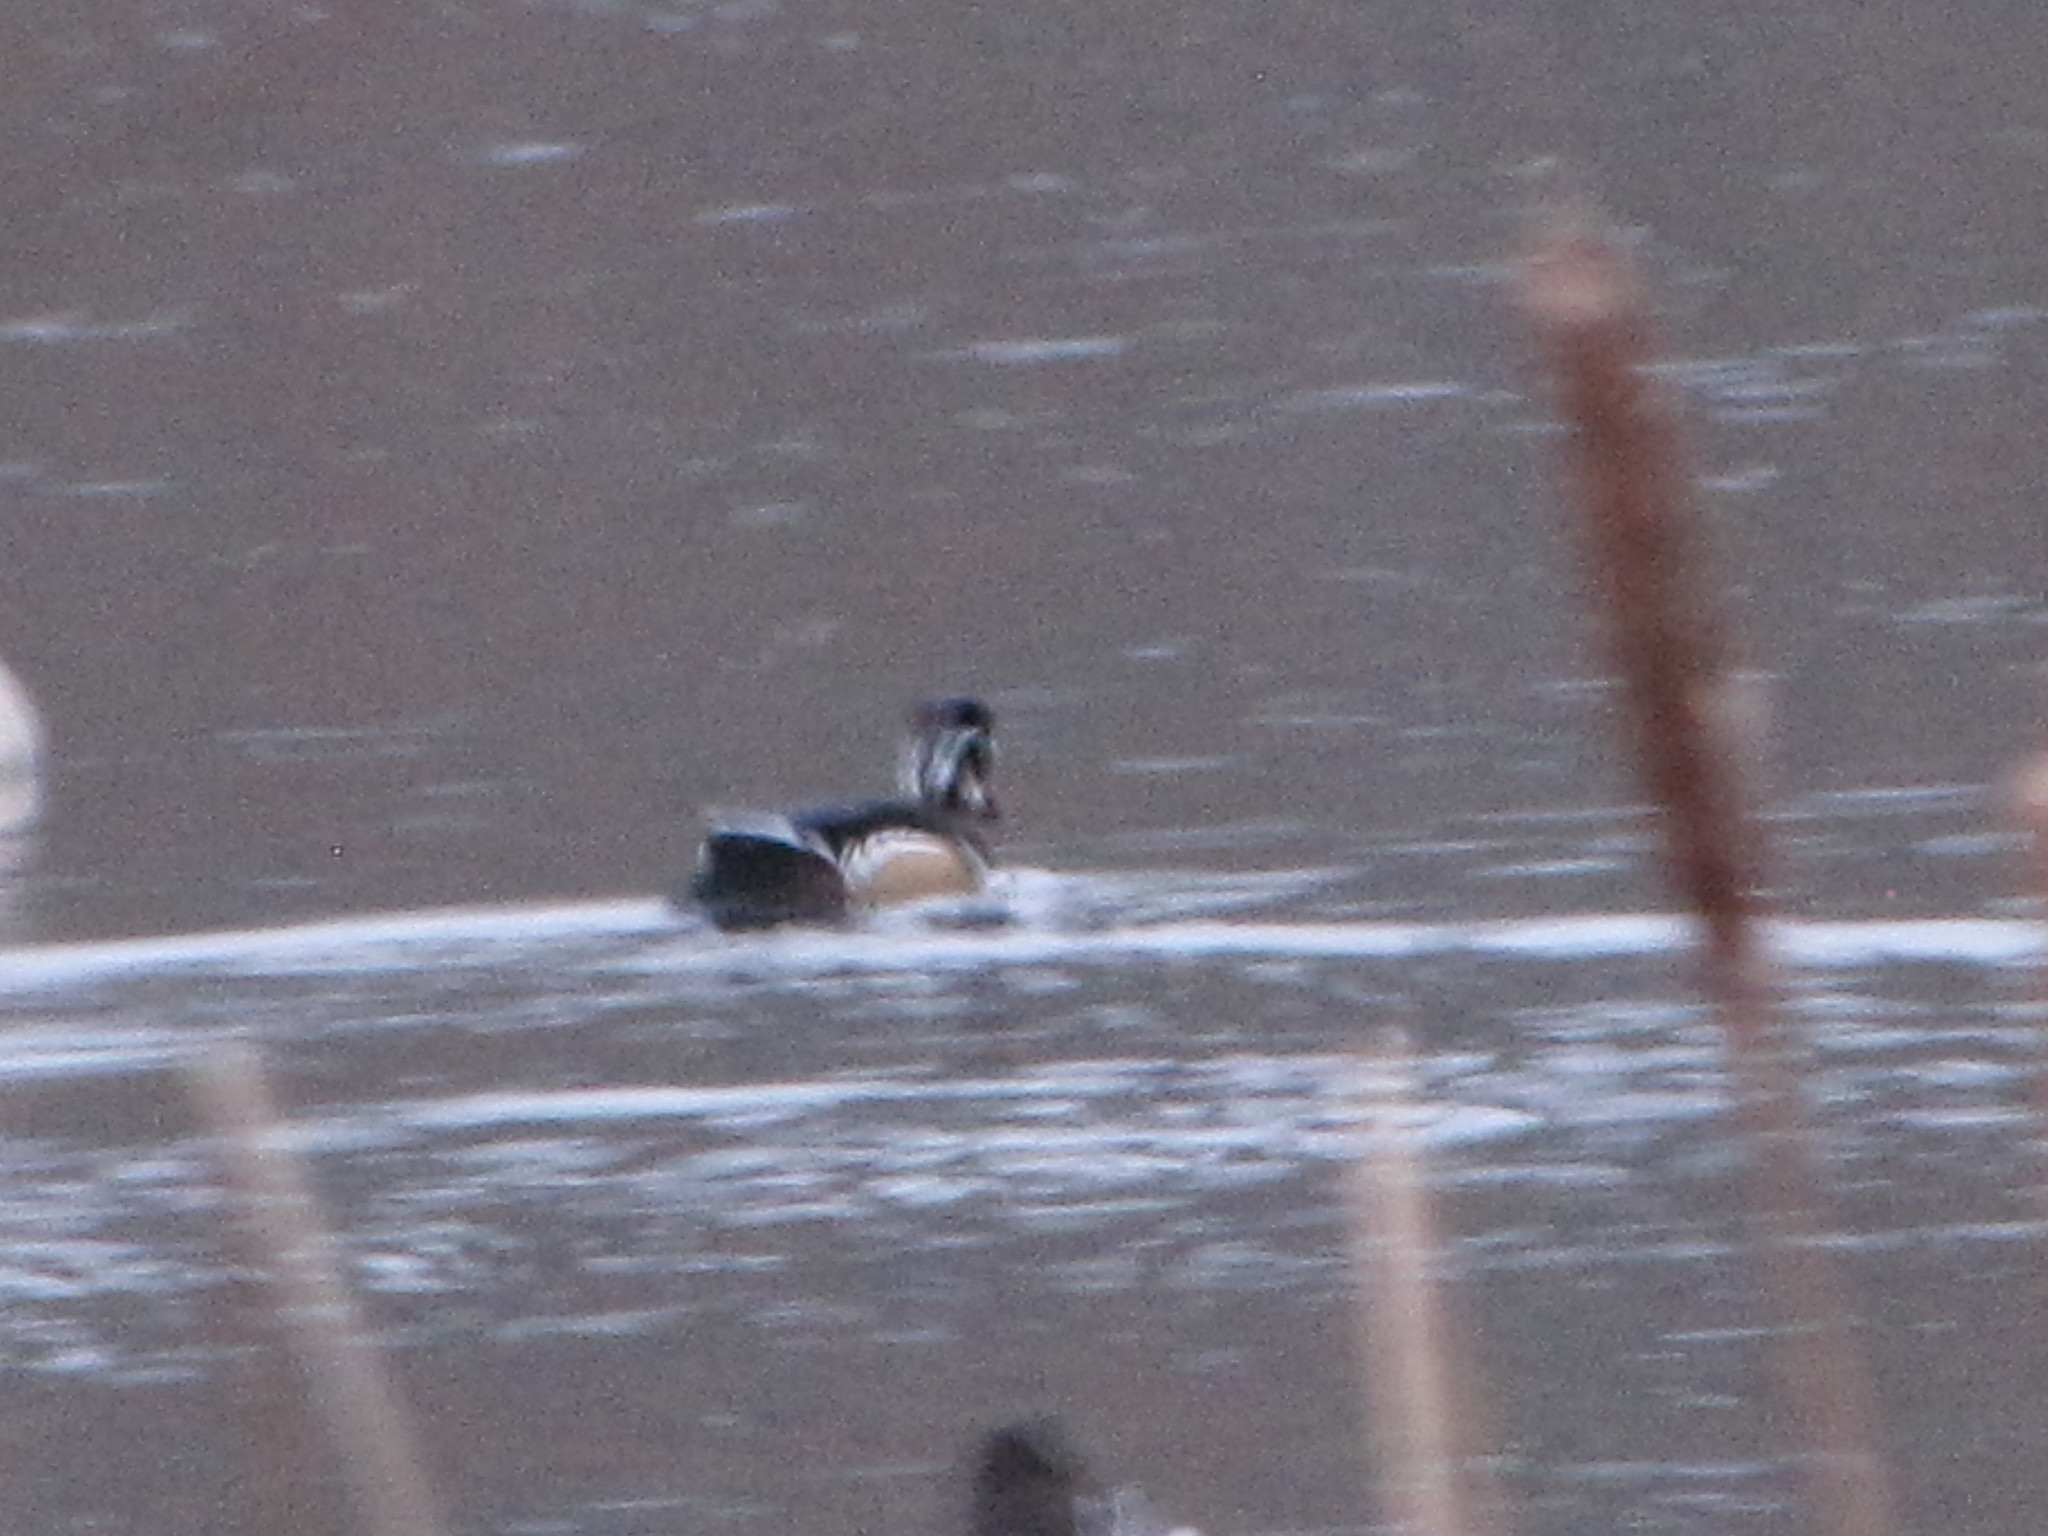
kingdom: Animalia
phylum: Chordata
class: Aves
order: Anseriformes
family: Anatidae
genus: Aix
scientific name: Aix sponsa
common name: Wood duck
